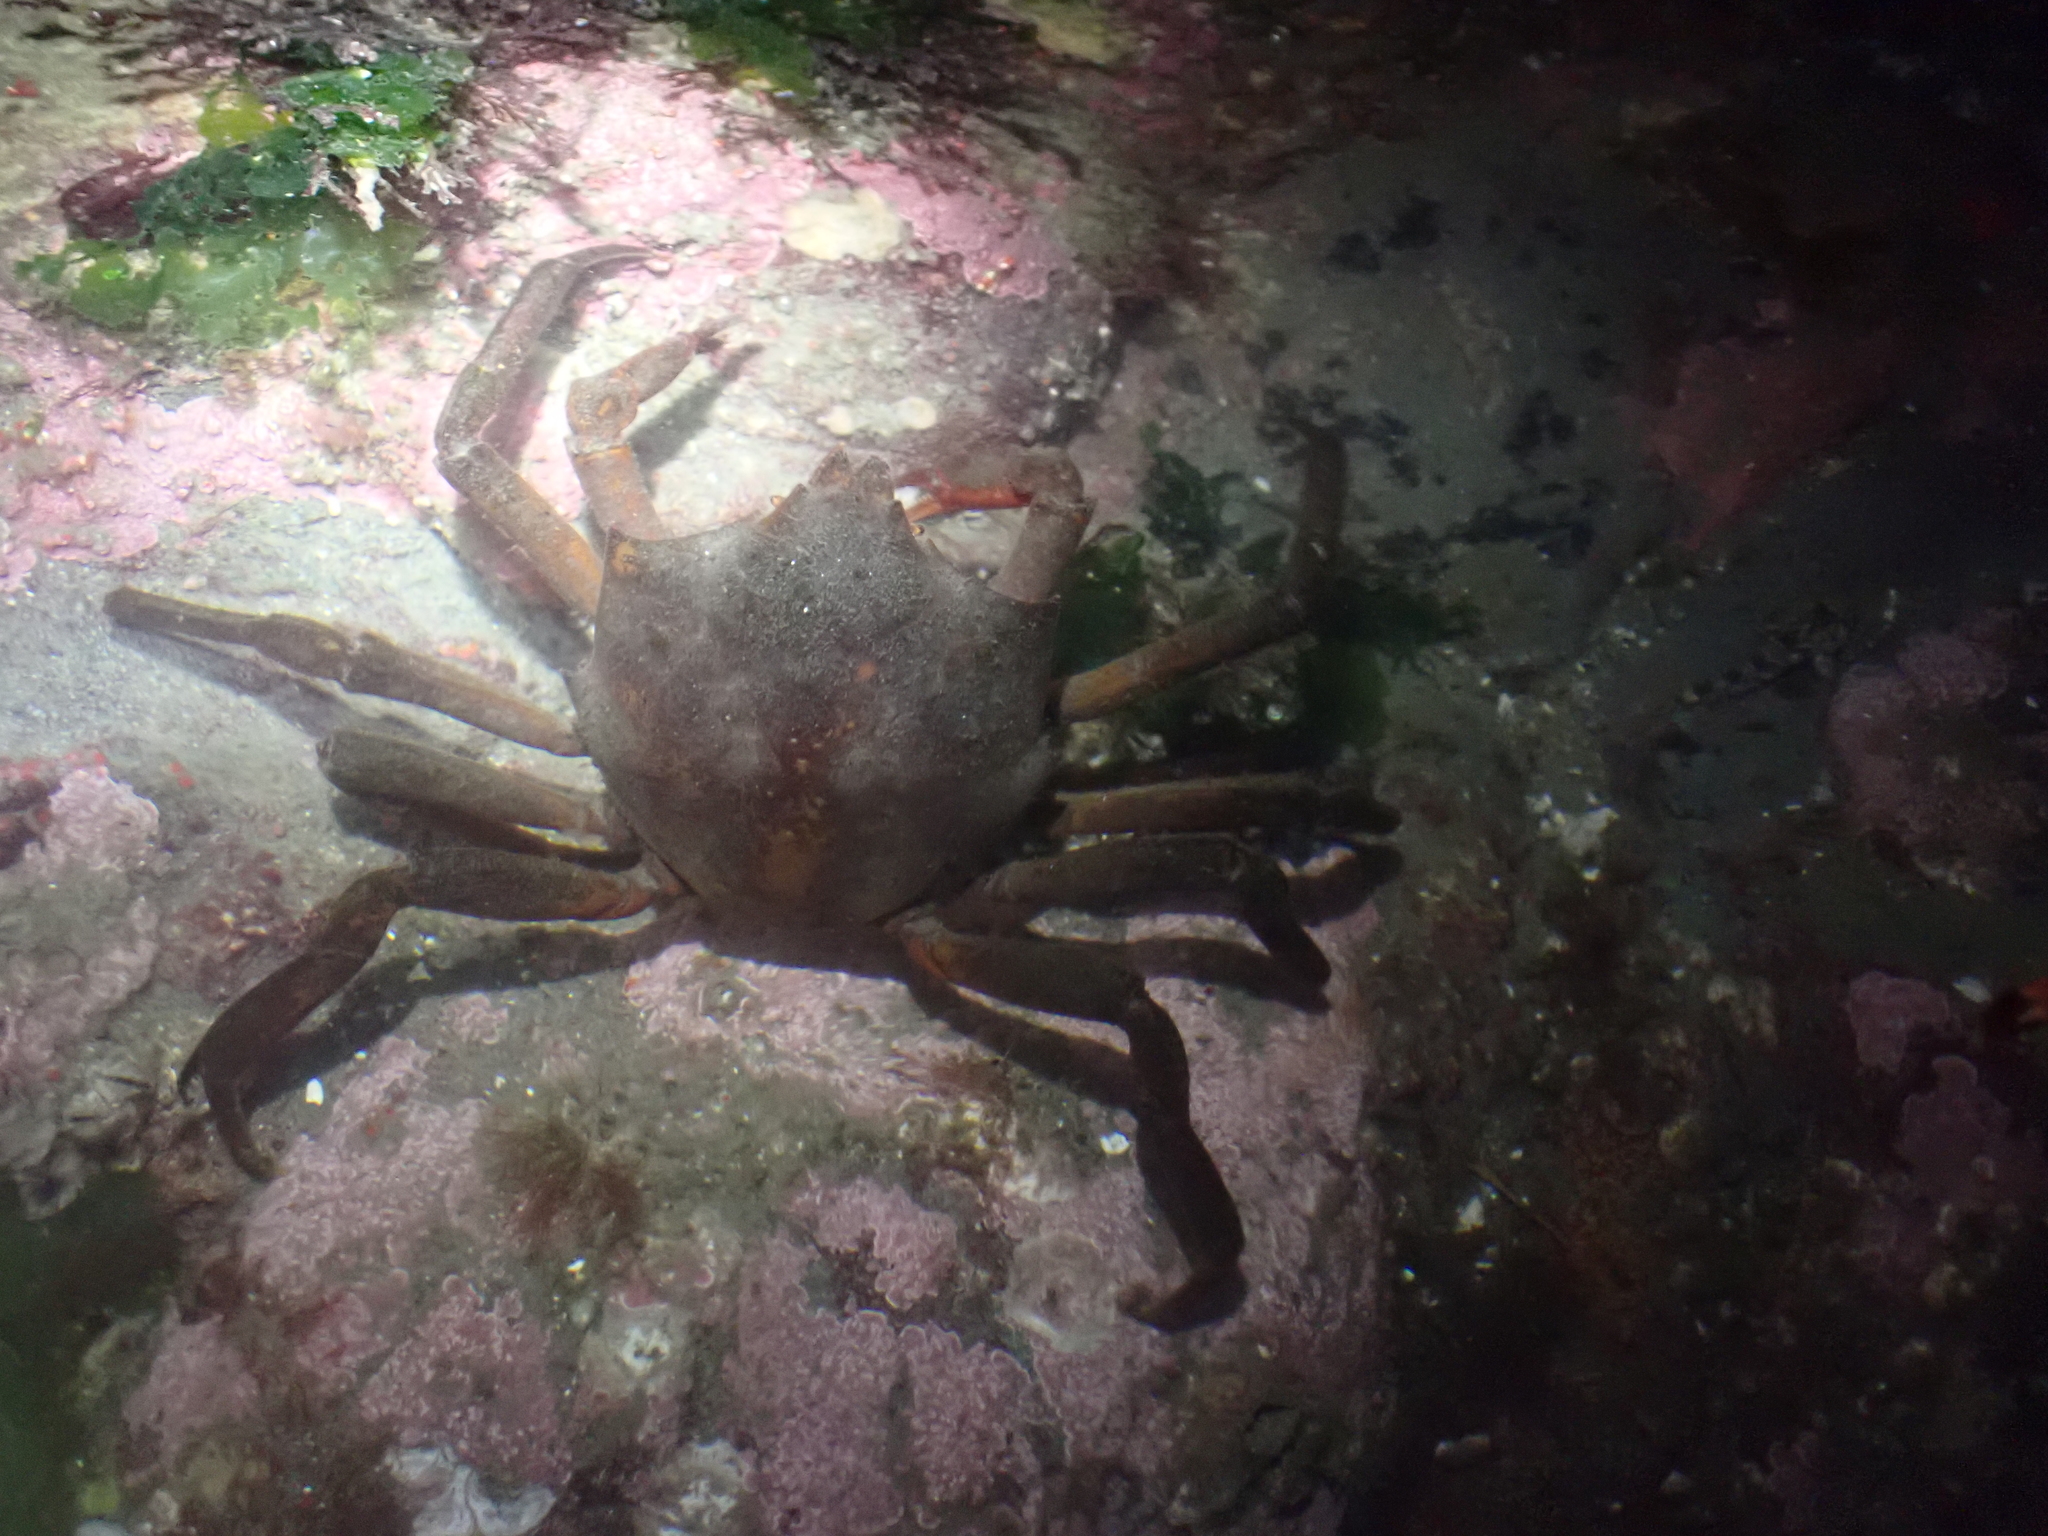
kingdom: Animalia
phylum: Arthropoda
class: Malacostraca
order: Decapoda
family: Epialtidae
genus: Pugettia
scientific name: Pugettia producta
